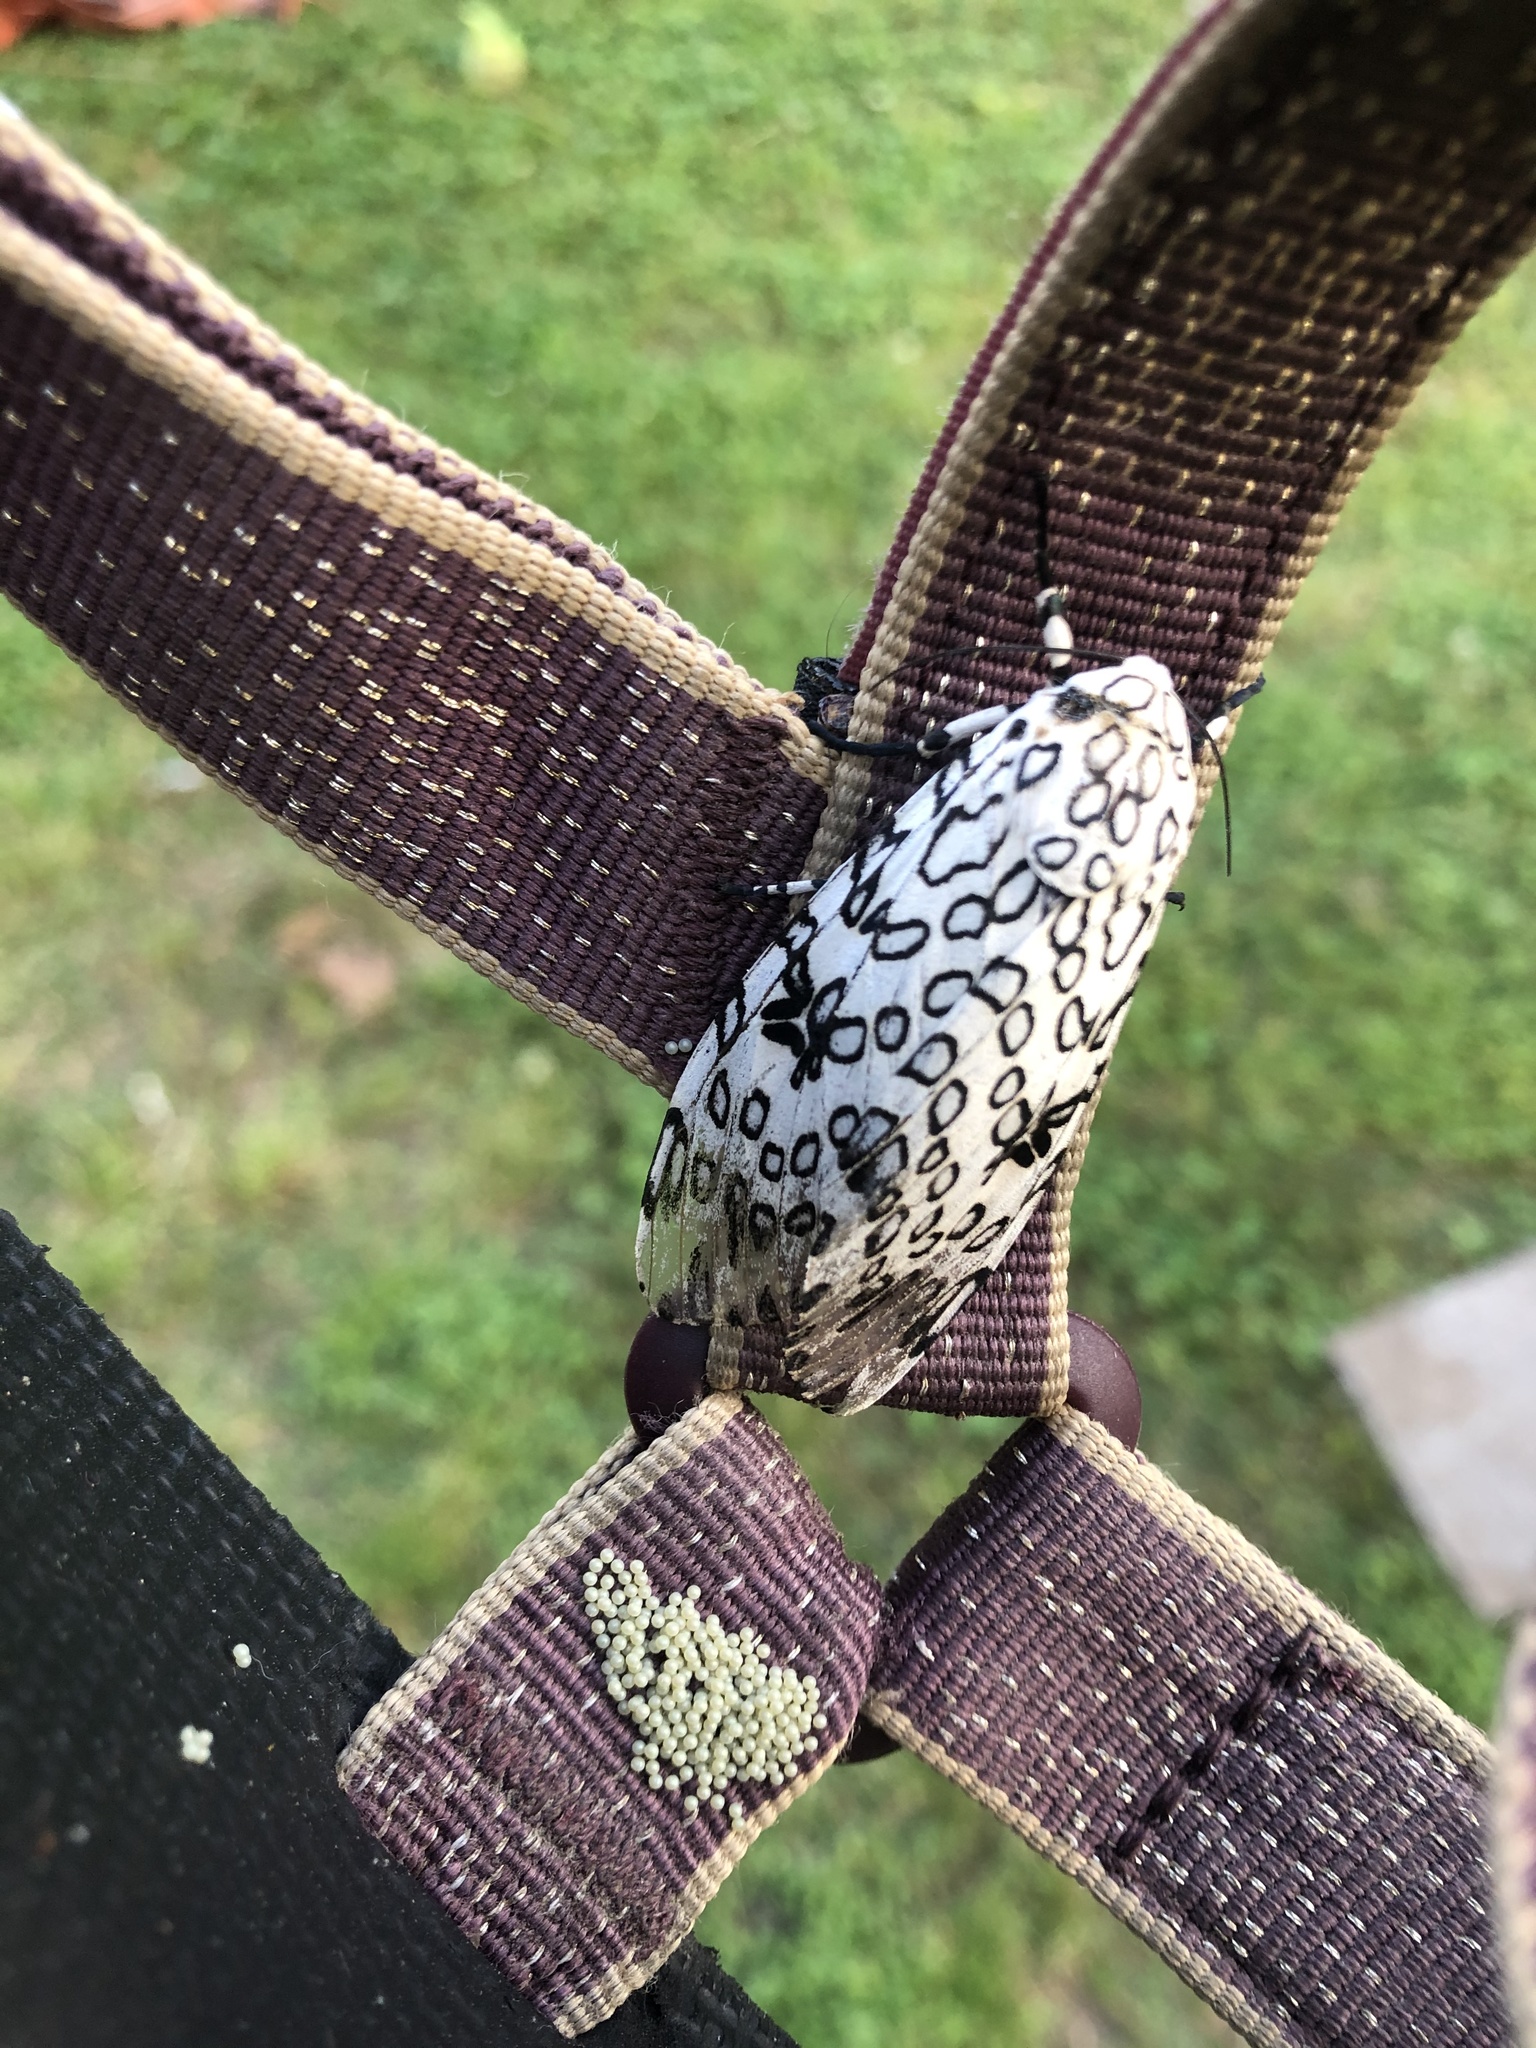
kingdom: Animalia
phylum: Arthropoda
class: Insecta
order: Lepidoptera
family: Erebidae
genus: Hypercompe
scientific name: Hypercompe scribonia
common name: Giant leopard moth
